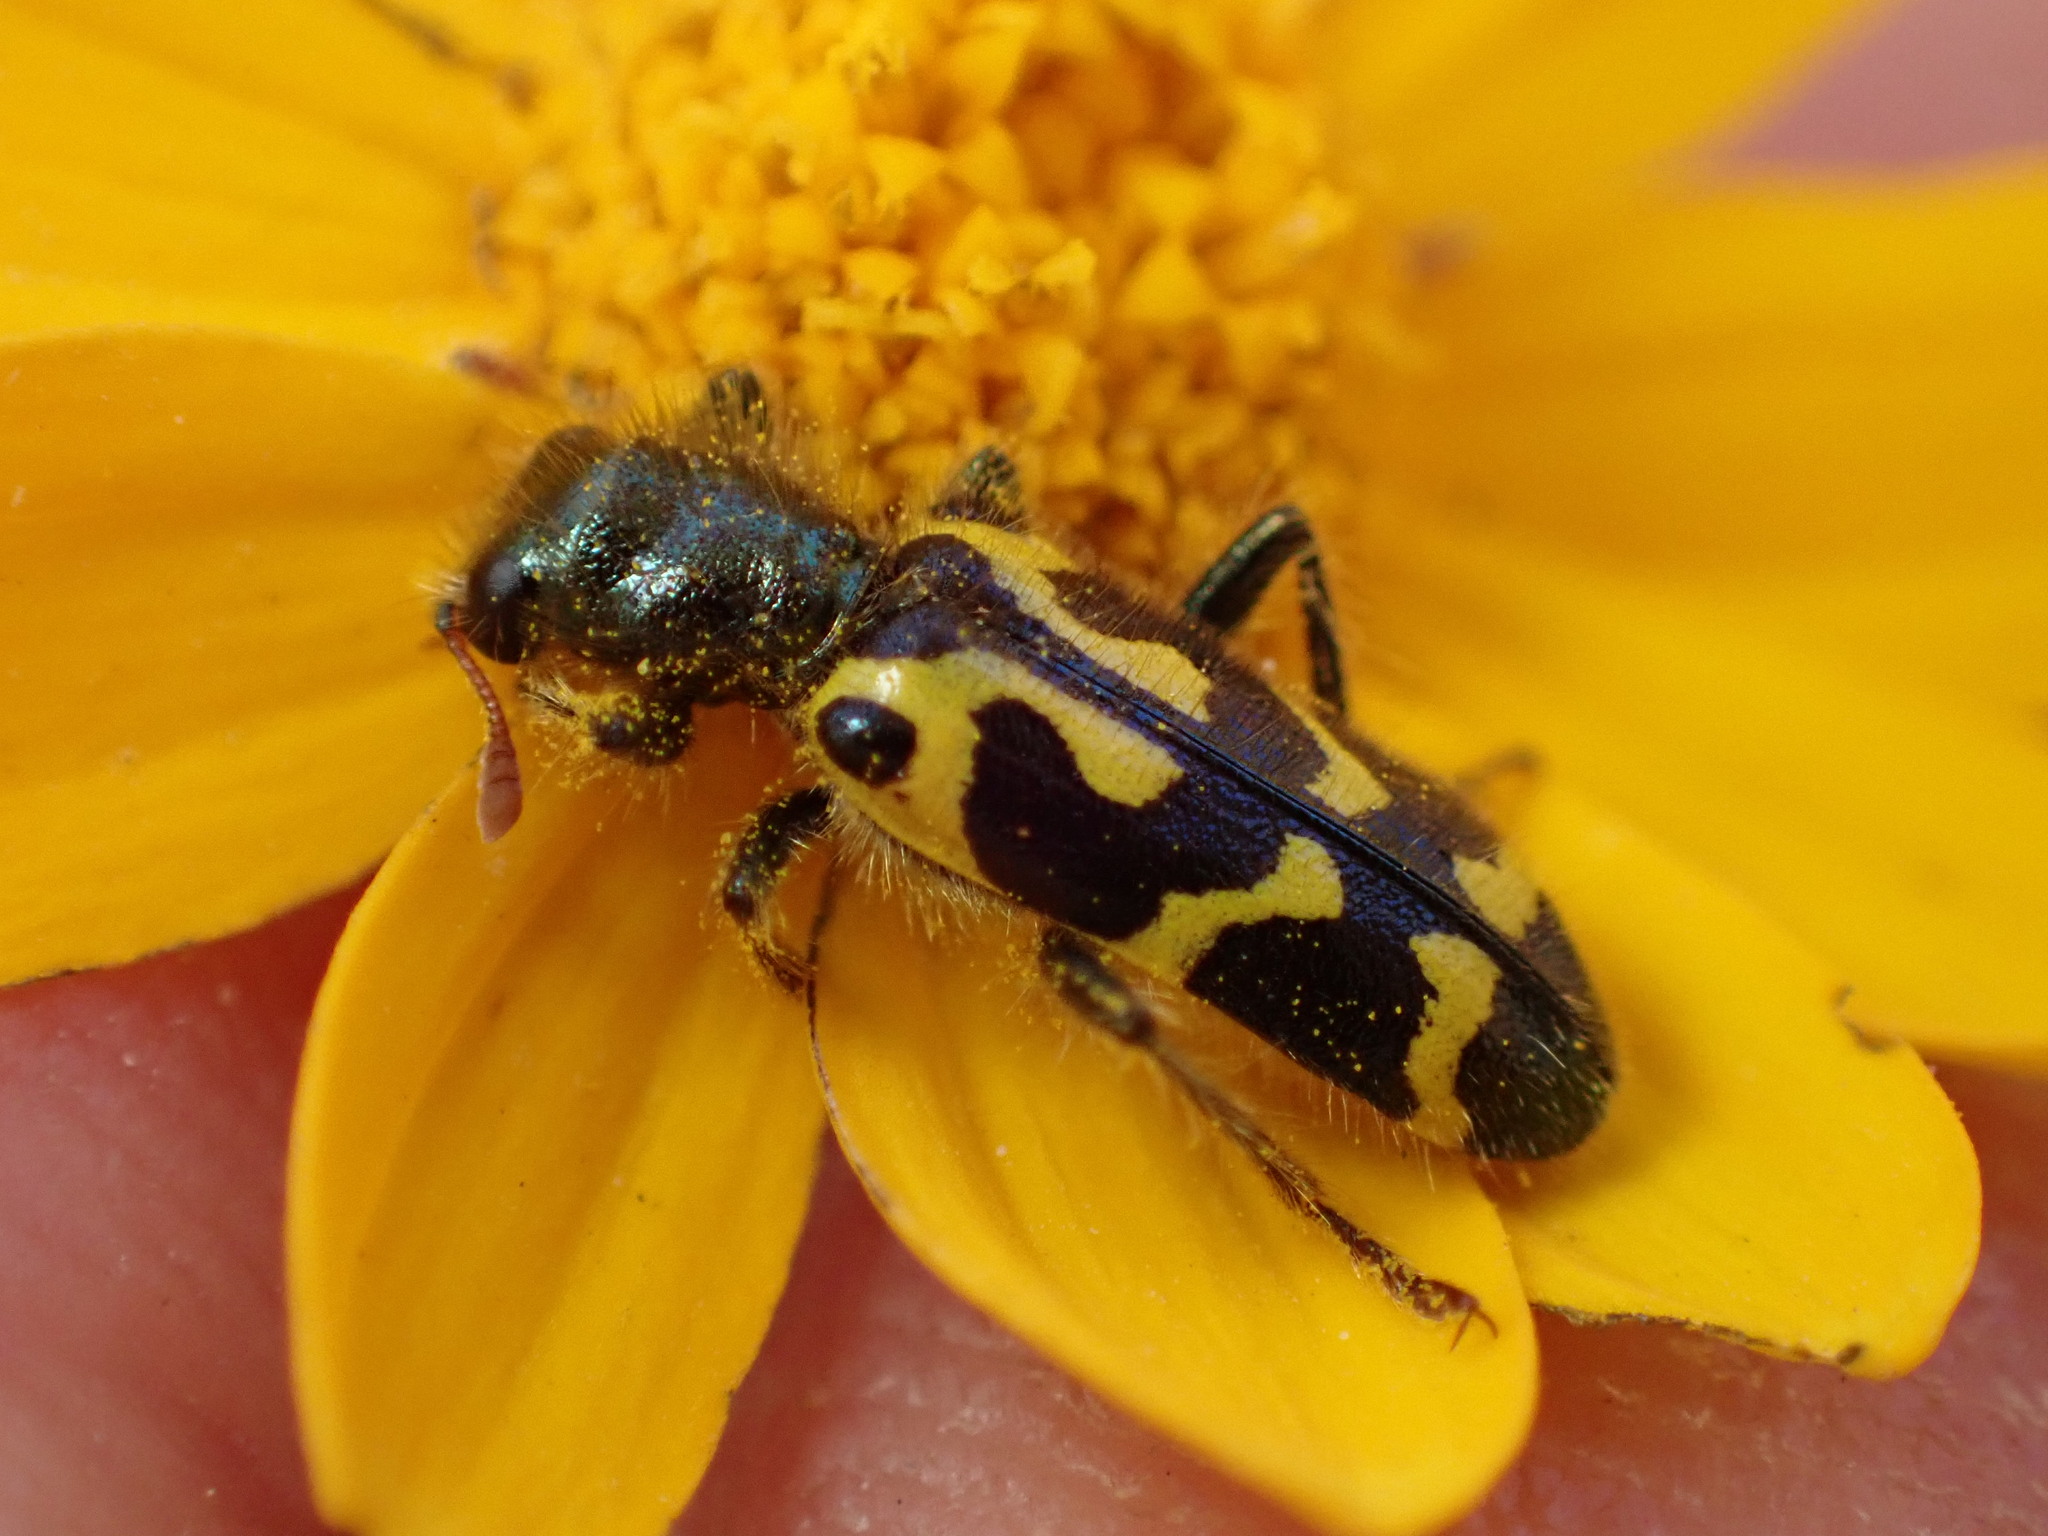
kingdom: Animalia
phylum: Arthropoda
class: Insecta
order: Coleoptera
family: Cleridae
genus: Trichodes
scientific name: Trichodes ornatus
